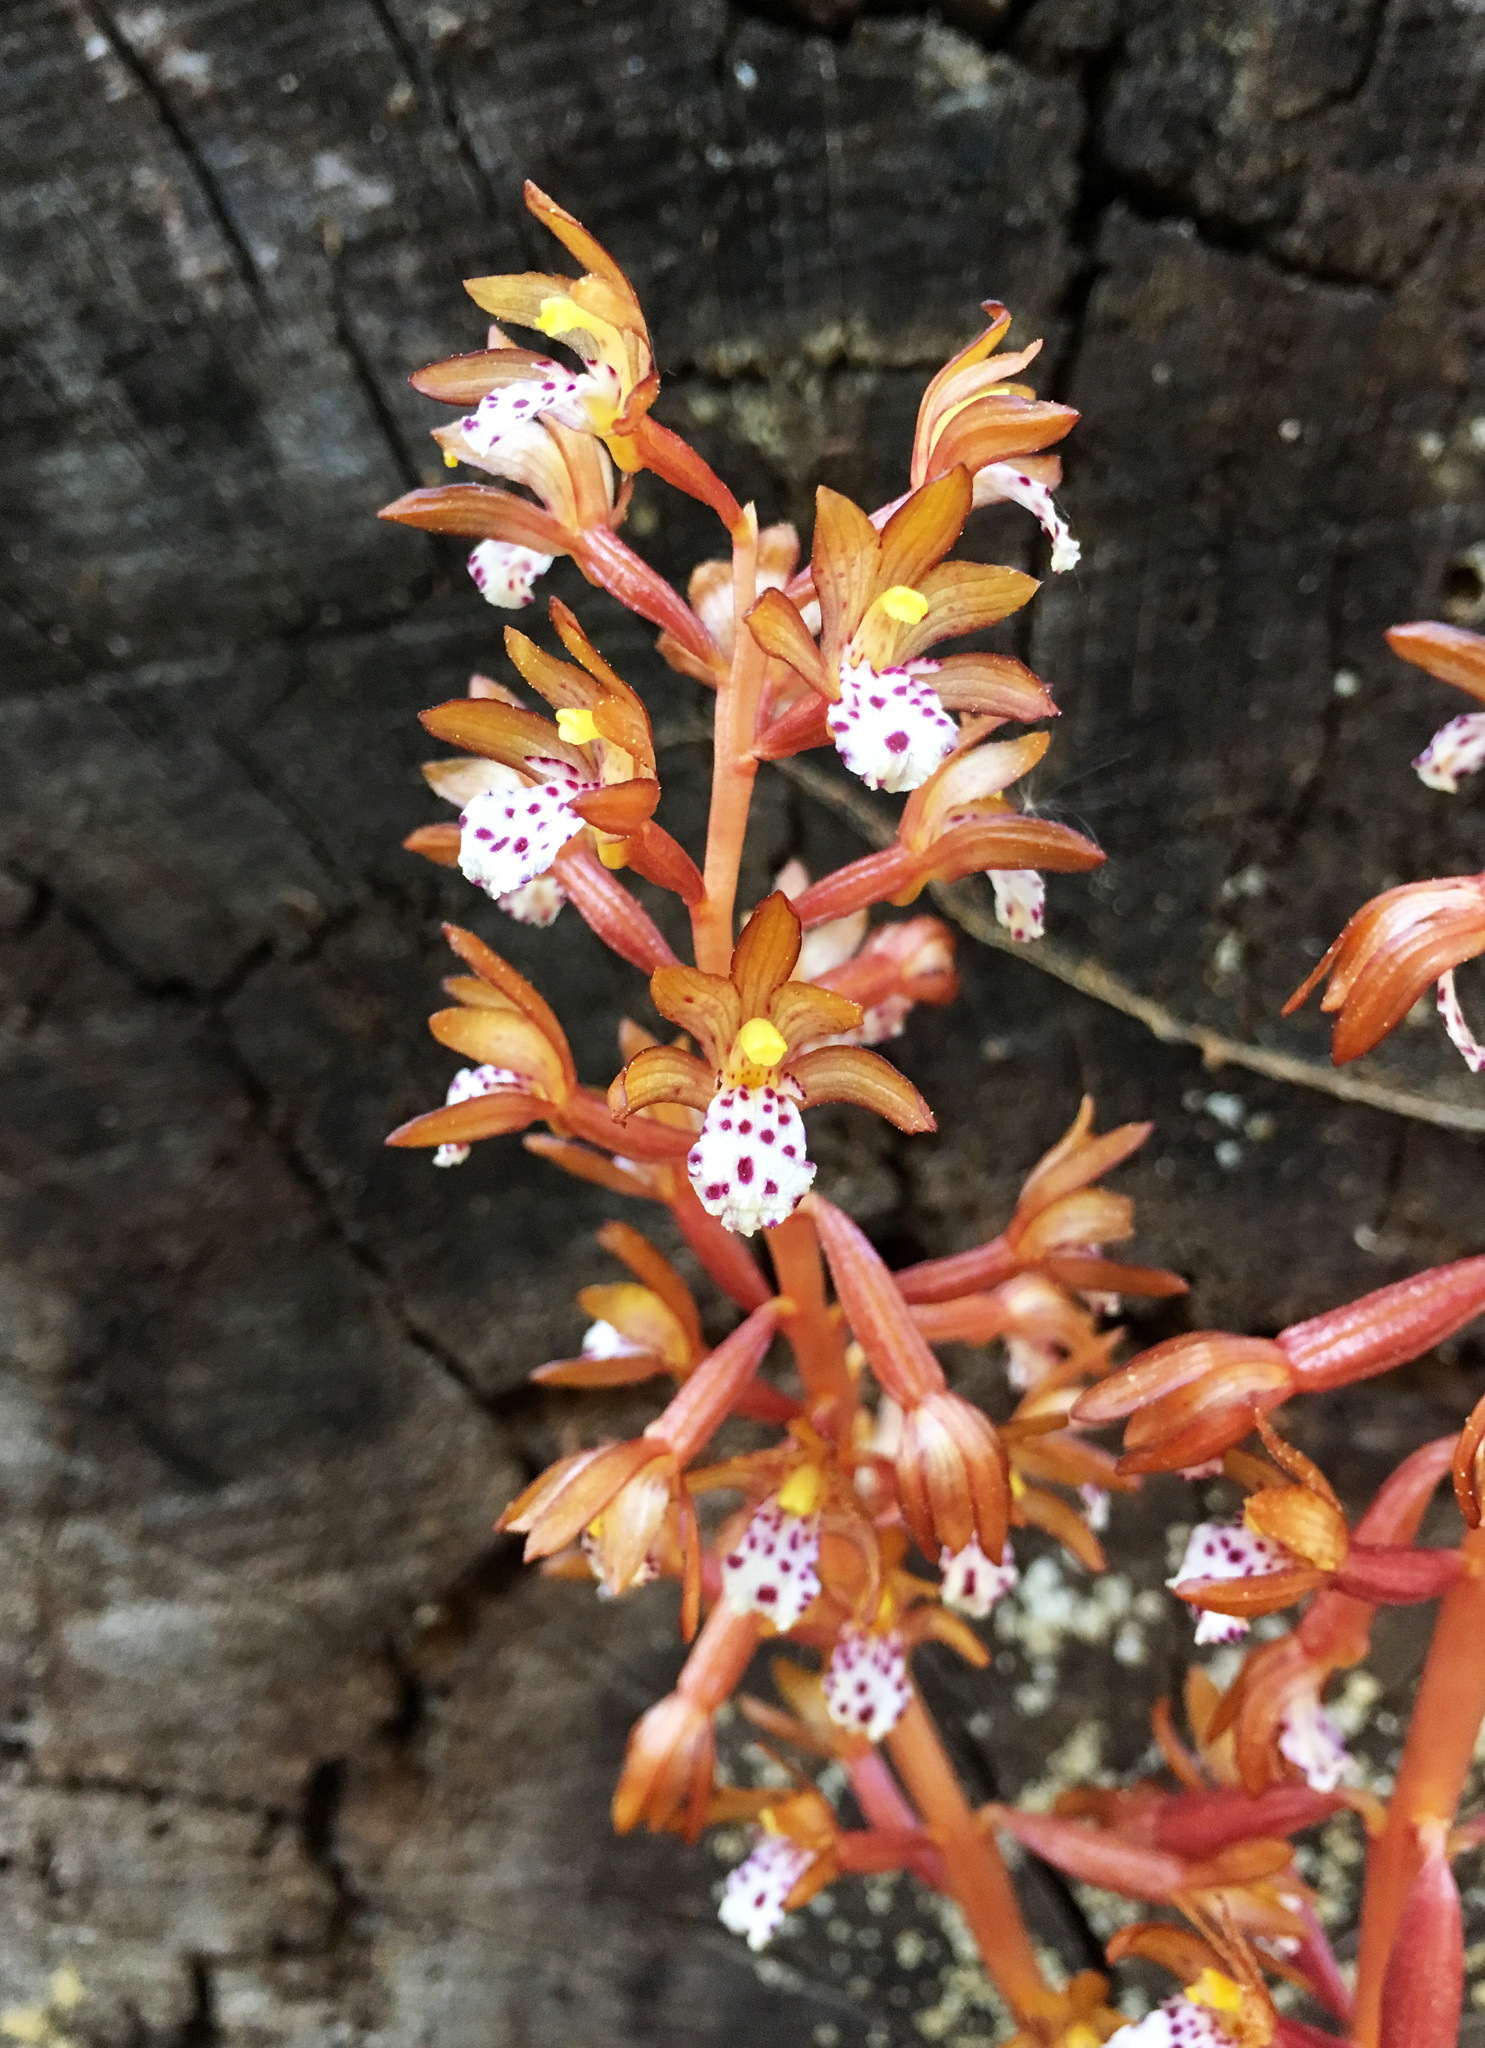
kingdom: Plantae
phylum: Tracheophyta
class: Liliopsida
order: Asparagales
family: Orchidaceae
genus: Corallorhiza
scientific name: Corallorhiza maculata
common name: Spotted coralroot
